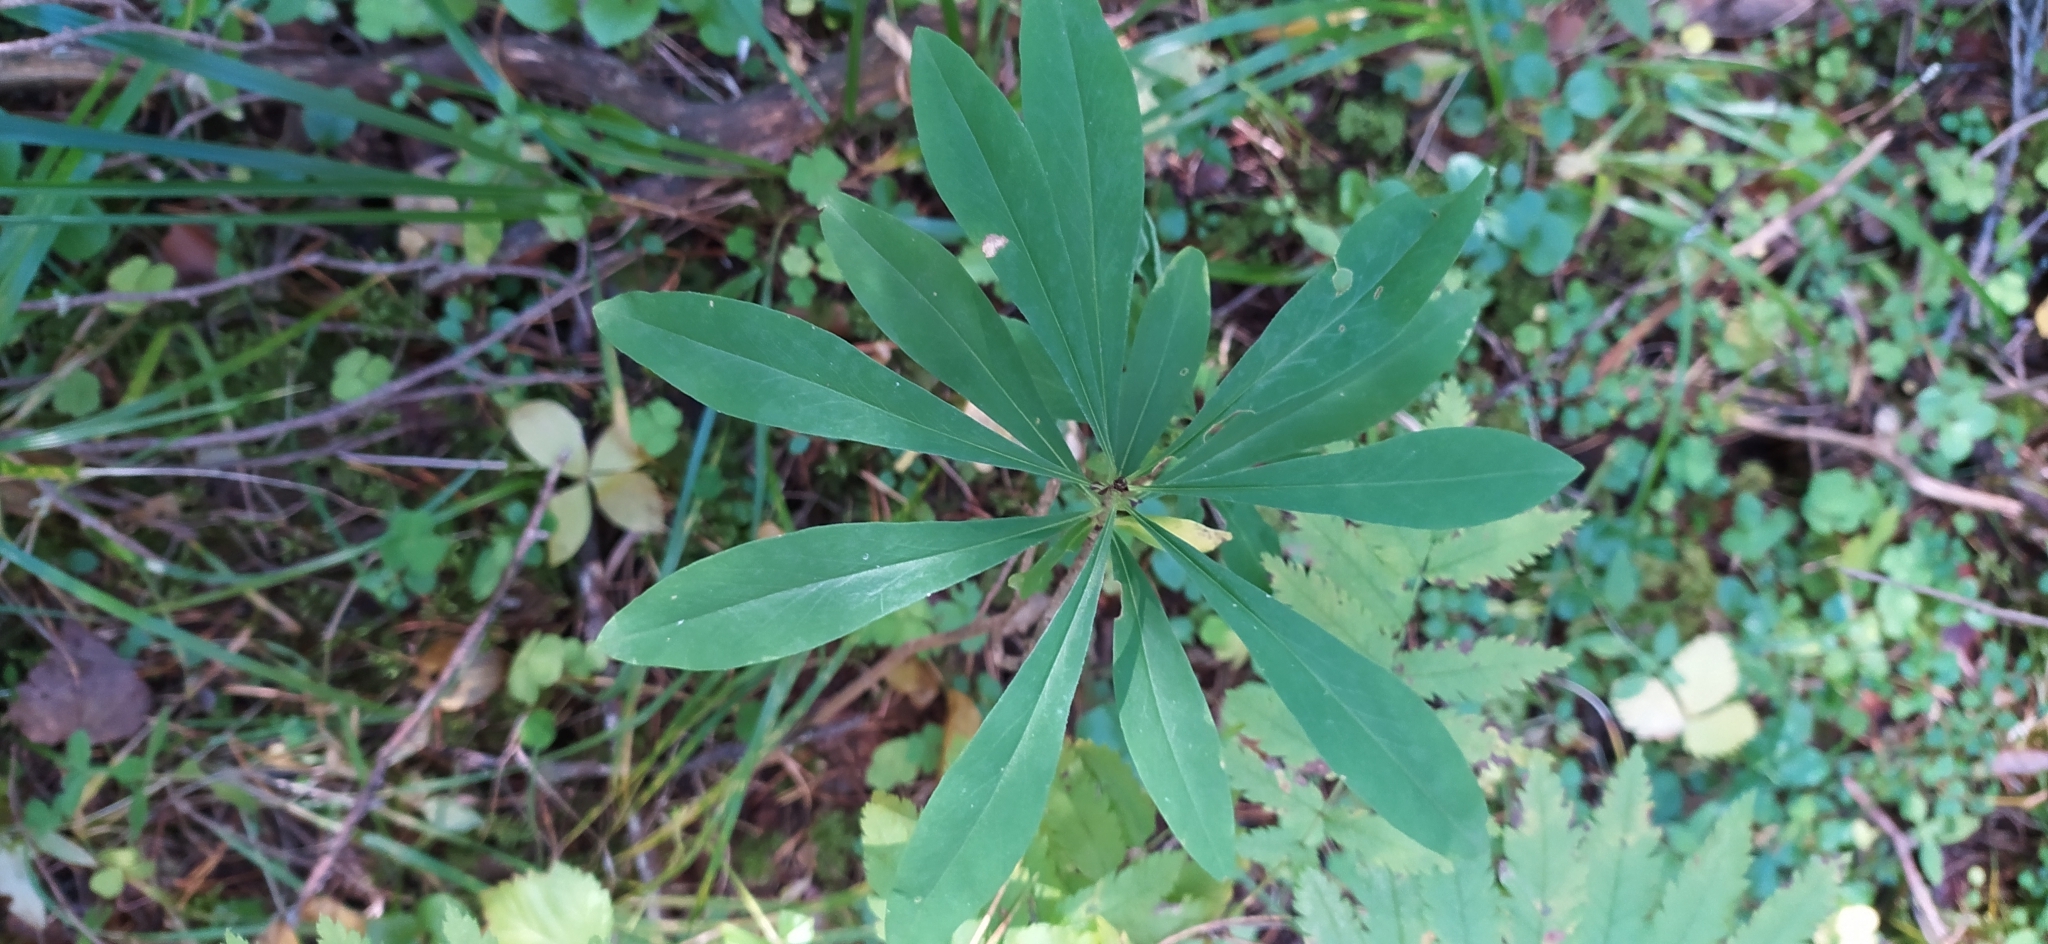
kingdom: Plantae
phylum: Tracheophyta
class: Magnoliopsida
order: Malvales
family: Thymelaeaceae
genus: Daphne
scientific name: Daphne mezereum
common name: Mezereon
